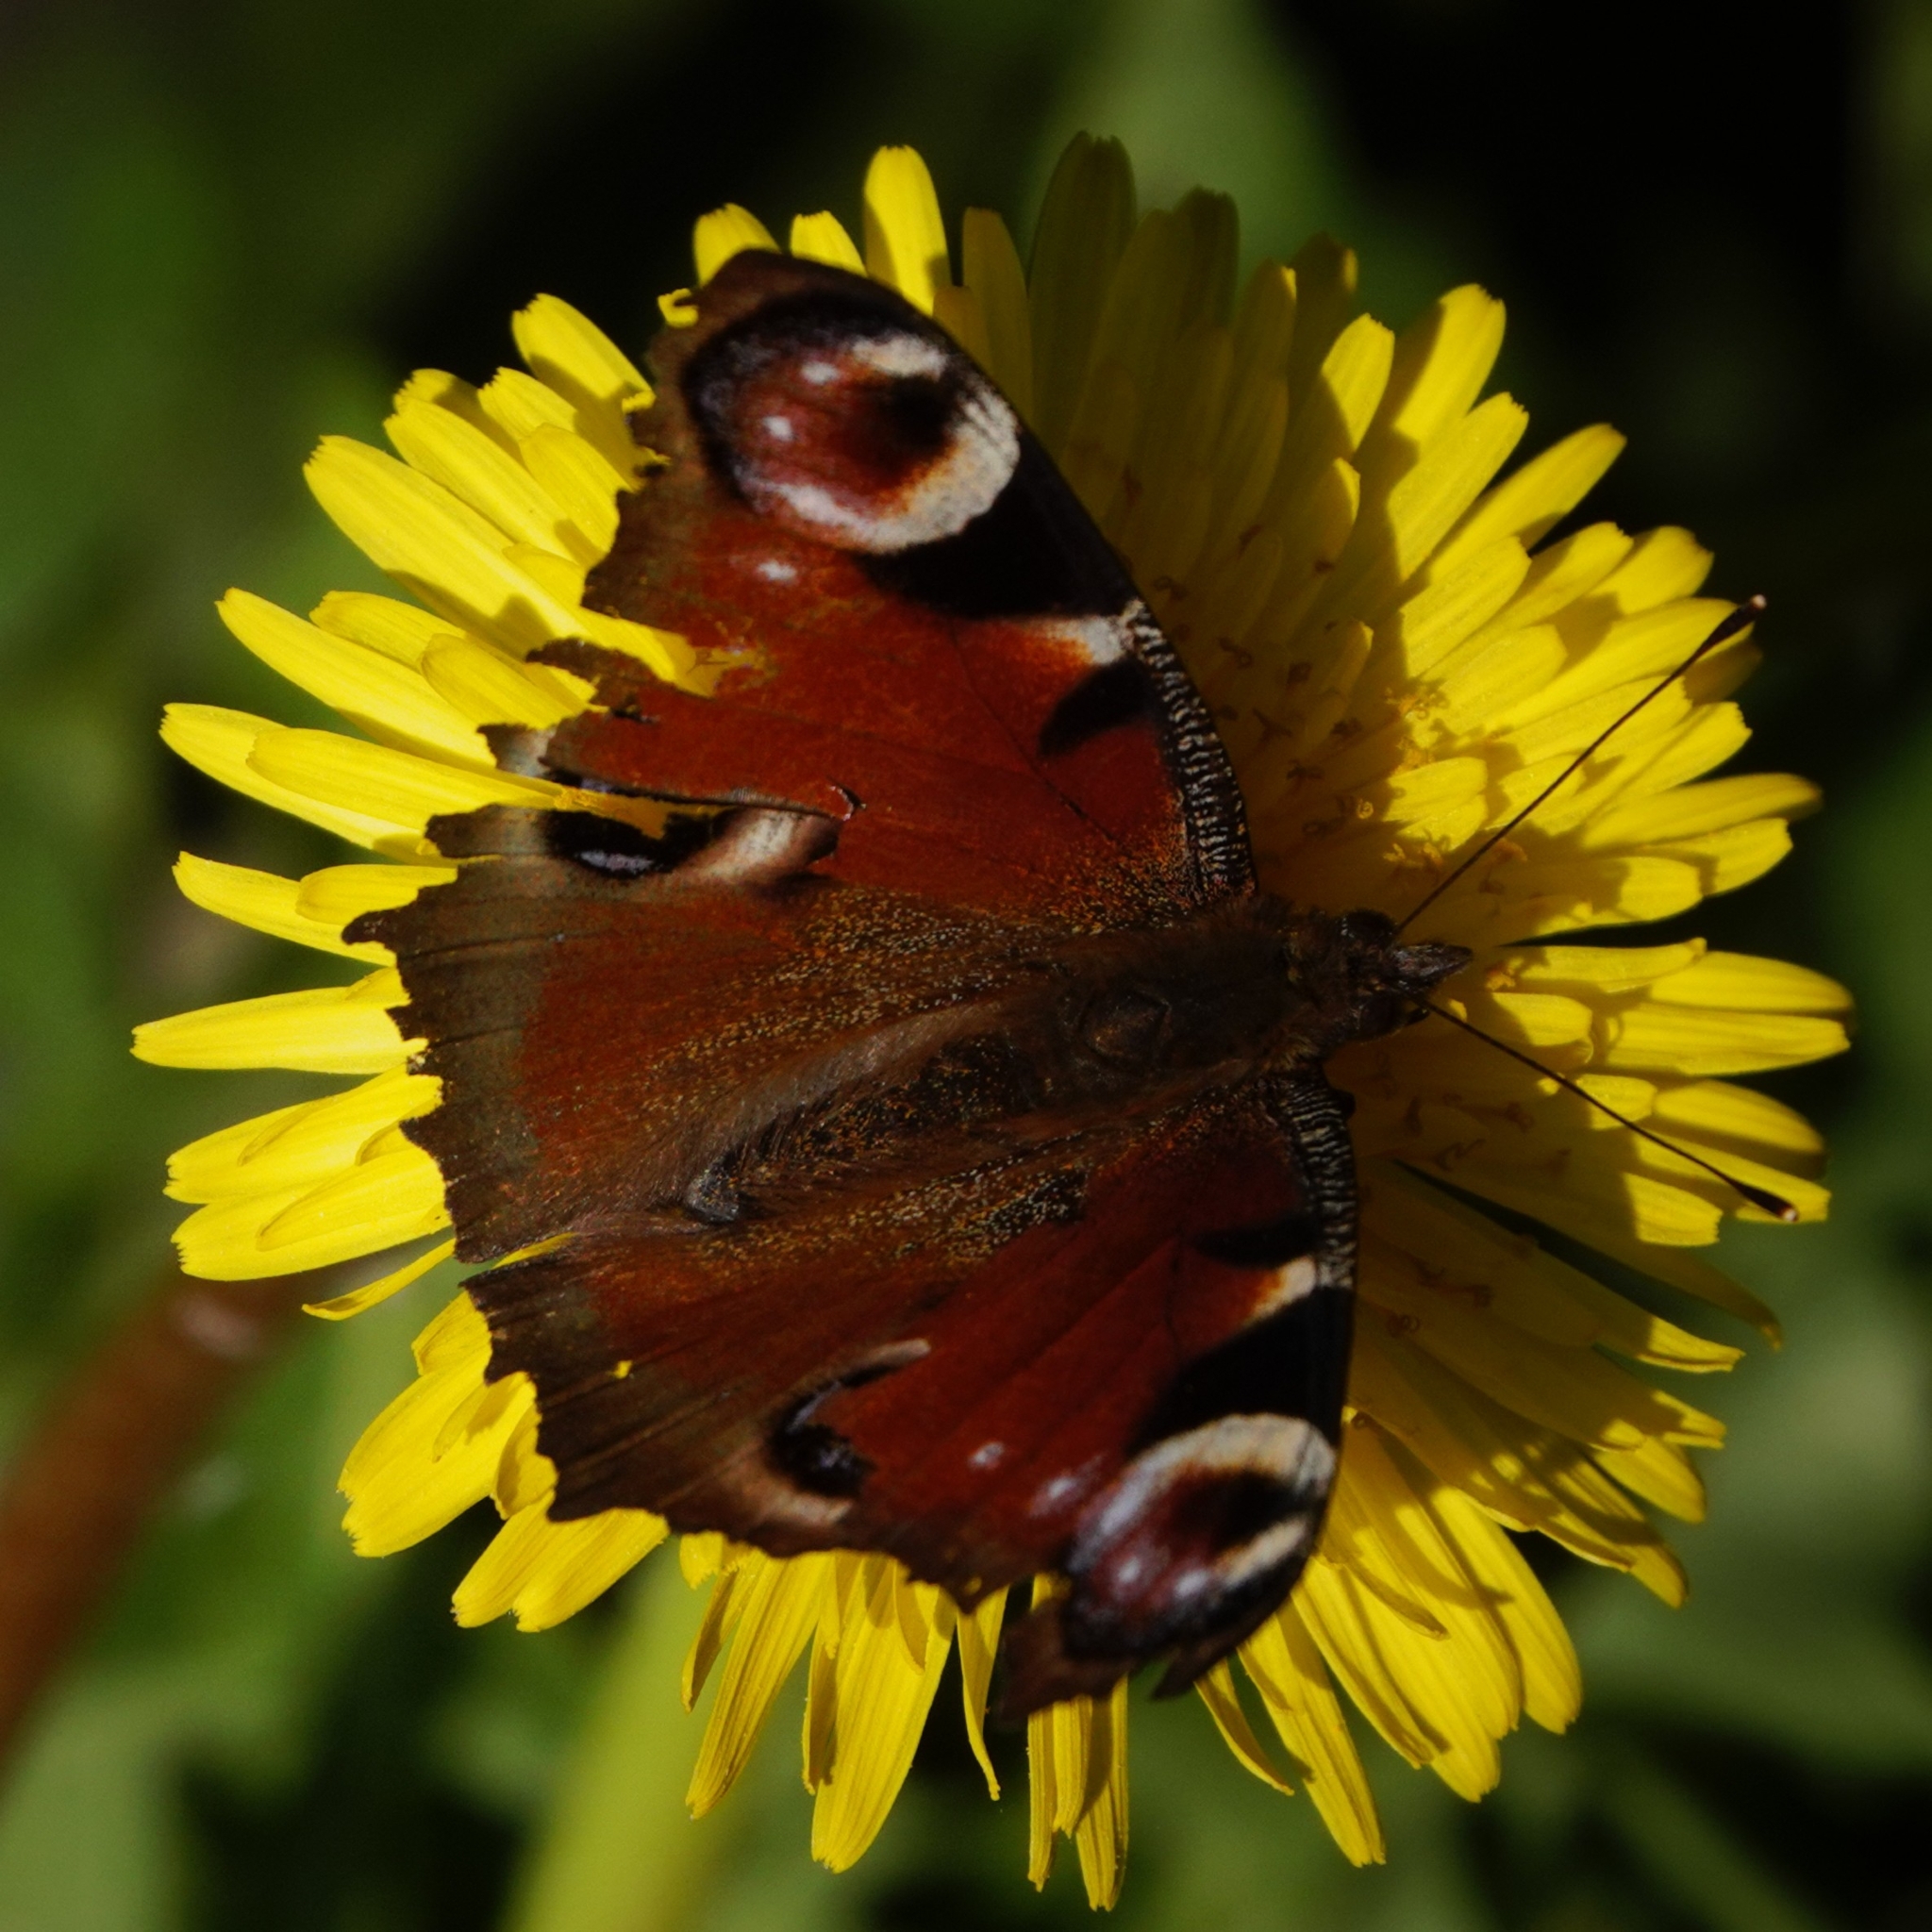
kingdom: Animalia
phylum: Arthropoda
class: Insecta
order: Lepidoptera
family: Nymphalidae
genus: Aglais
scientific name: Aglais io
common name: Peacock
